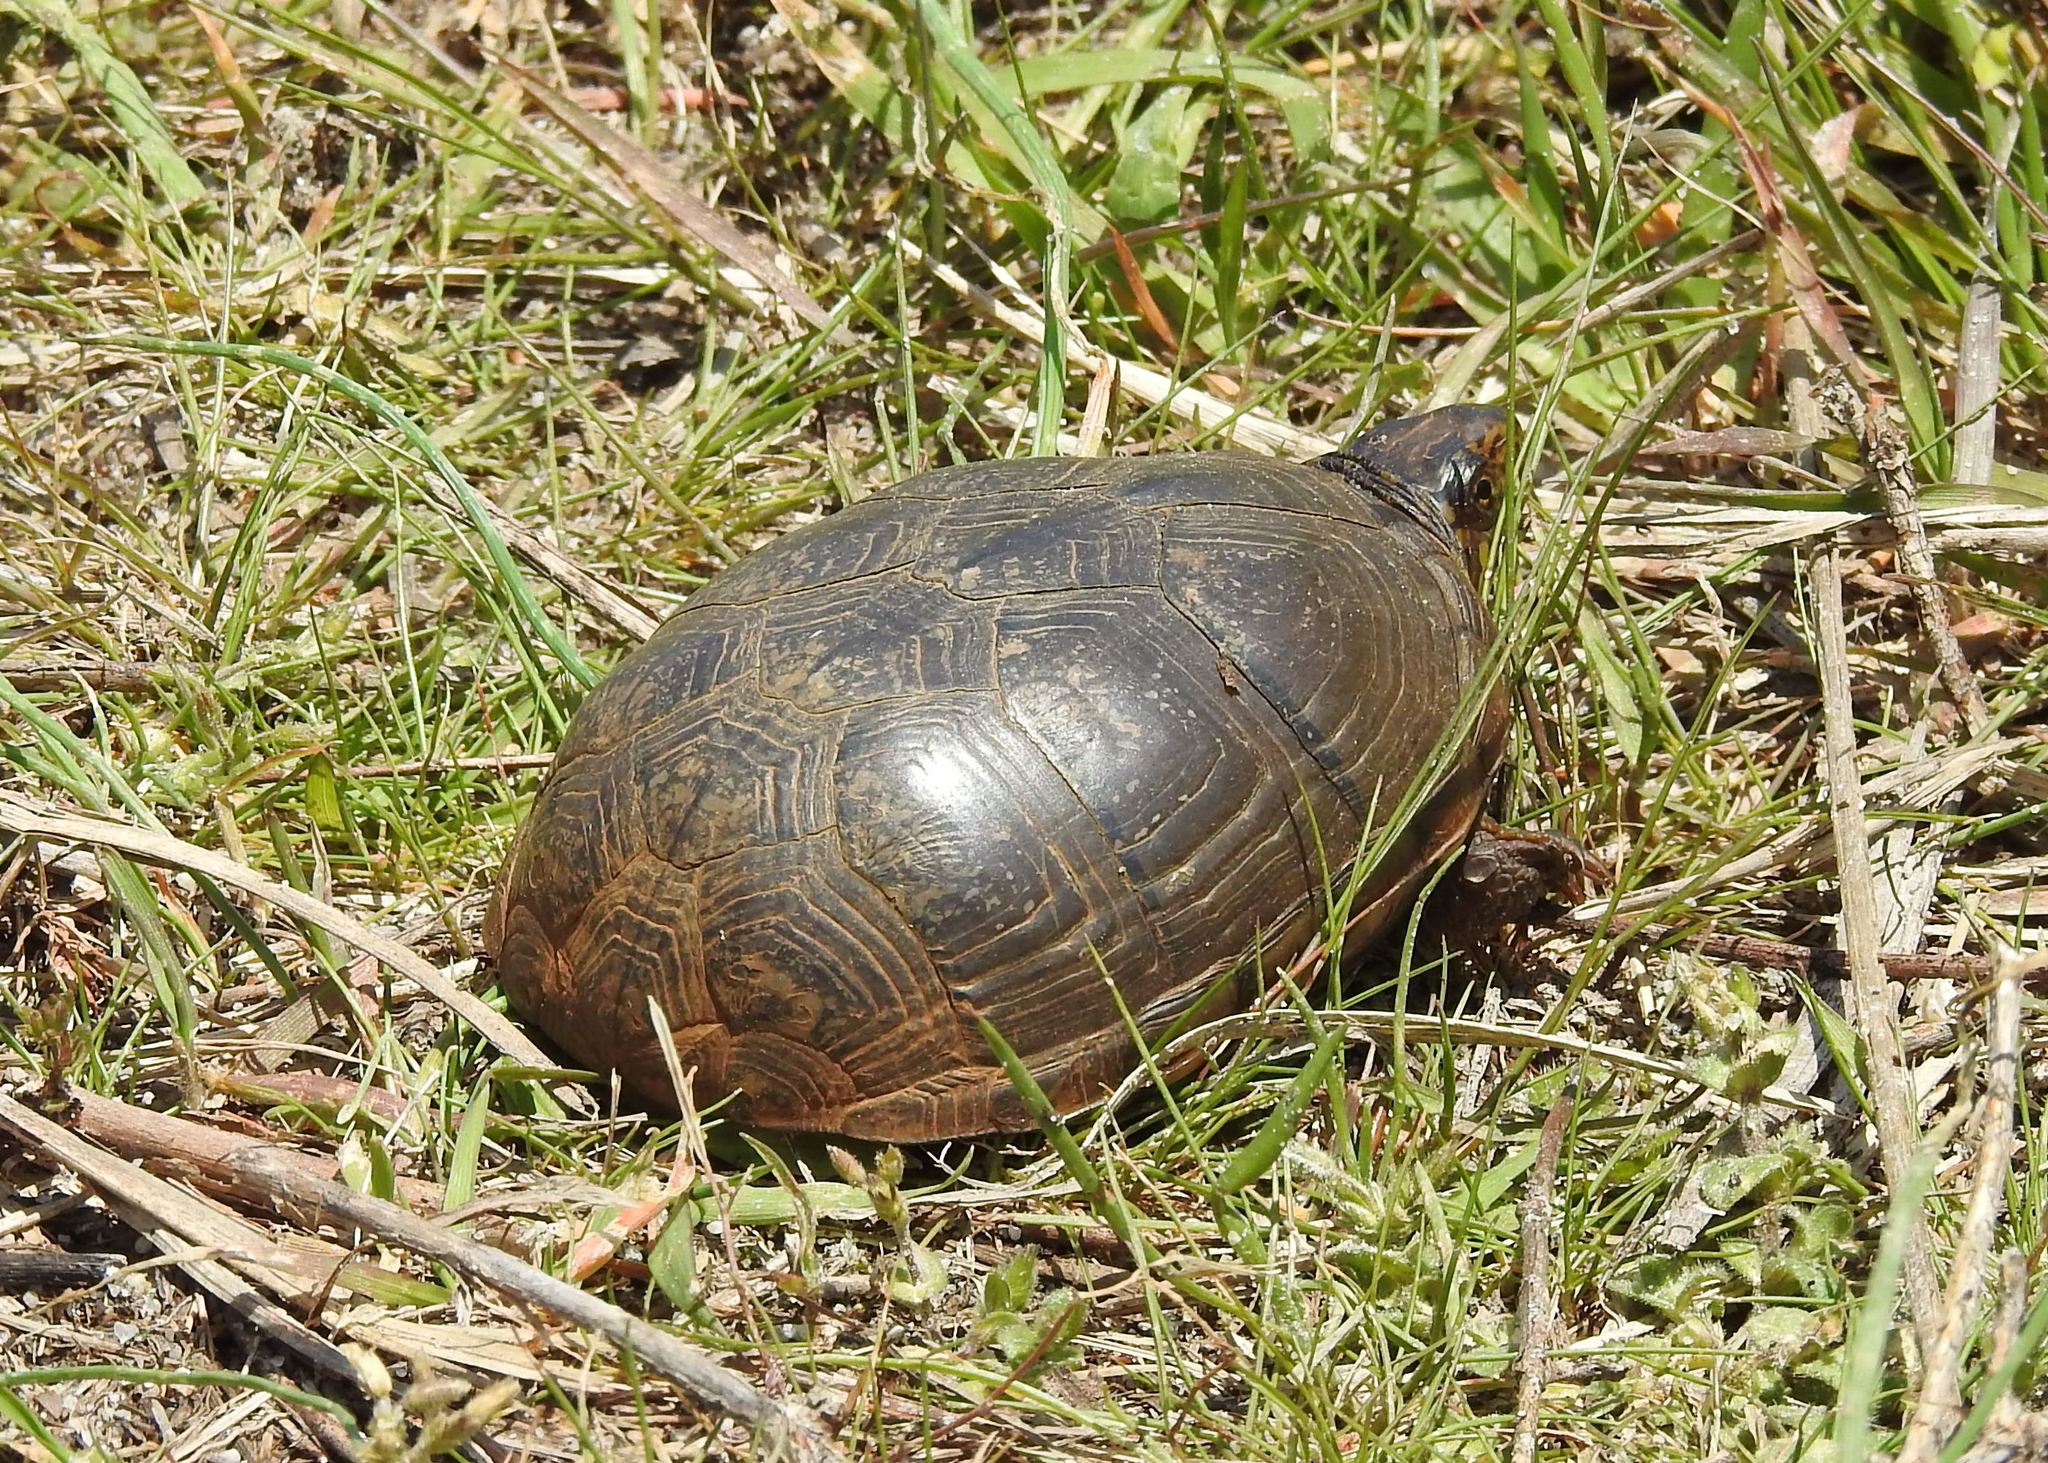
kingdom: Animalia
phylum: Chordata
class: Testudines
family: Kinosternidae
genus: Kinosternon
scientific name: Kinosternon subrubrum
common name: Eastern mud turtle
